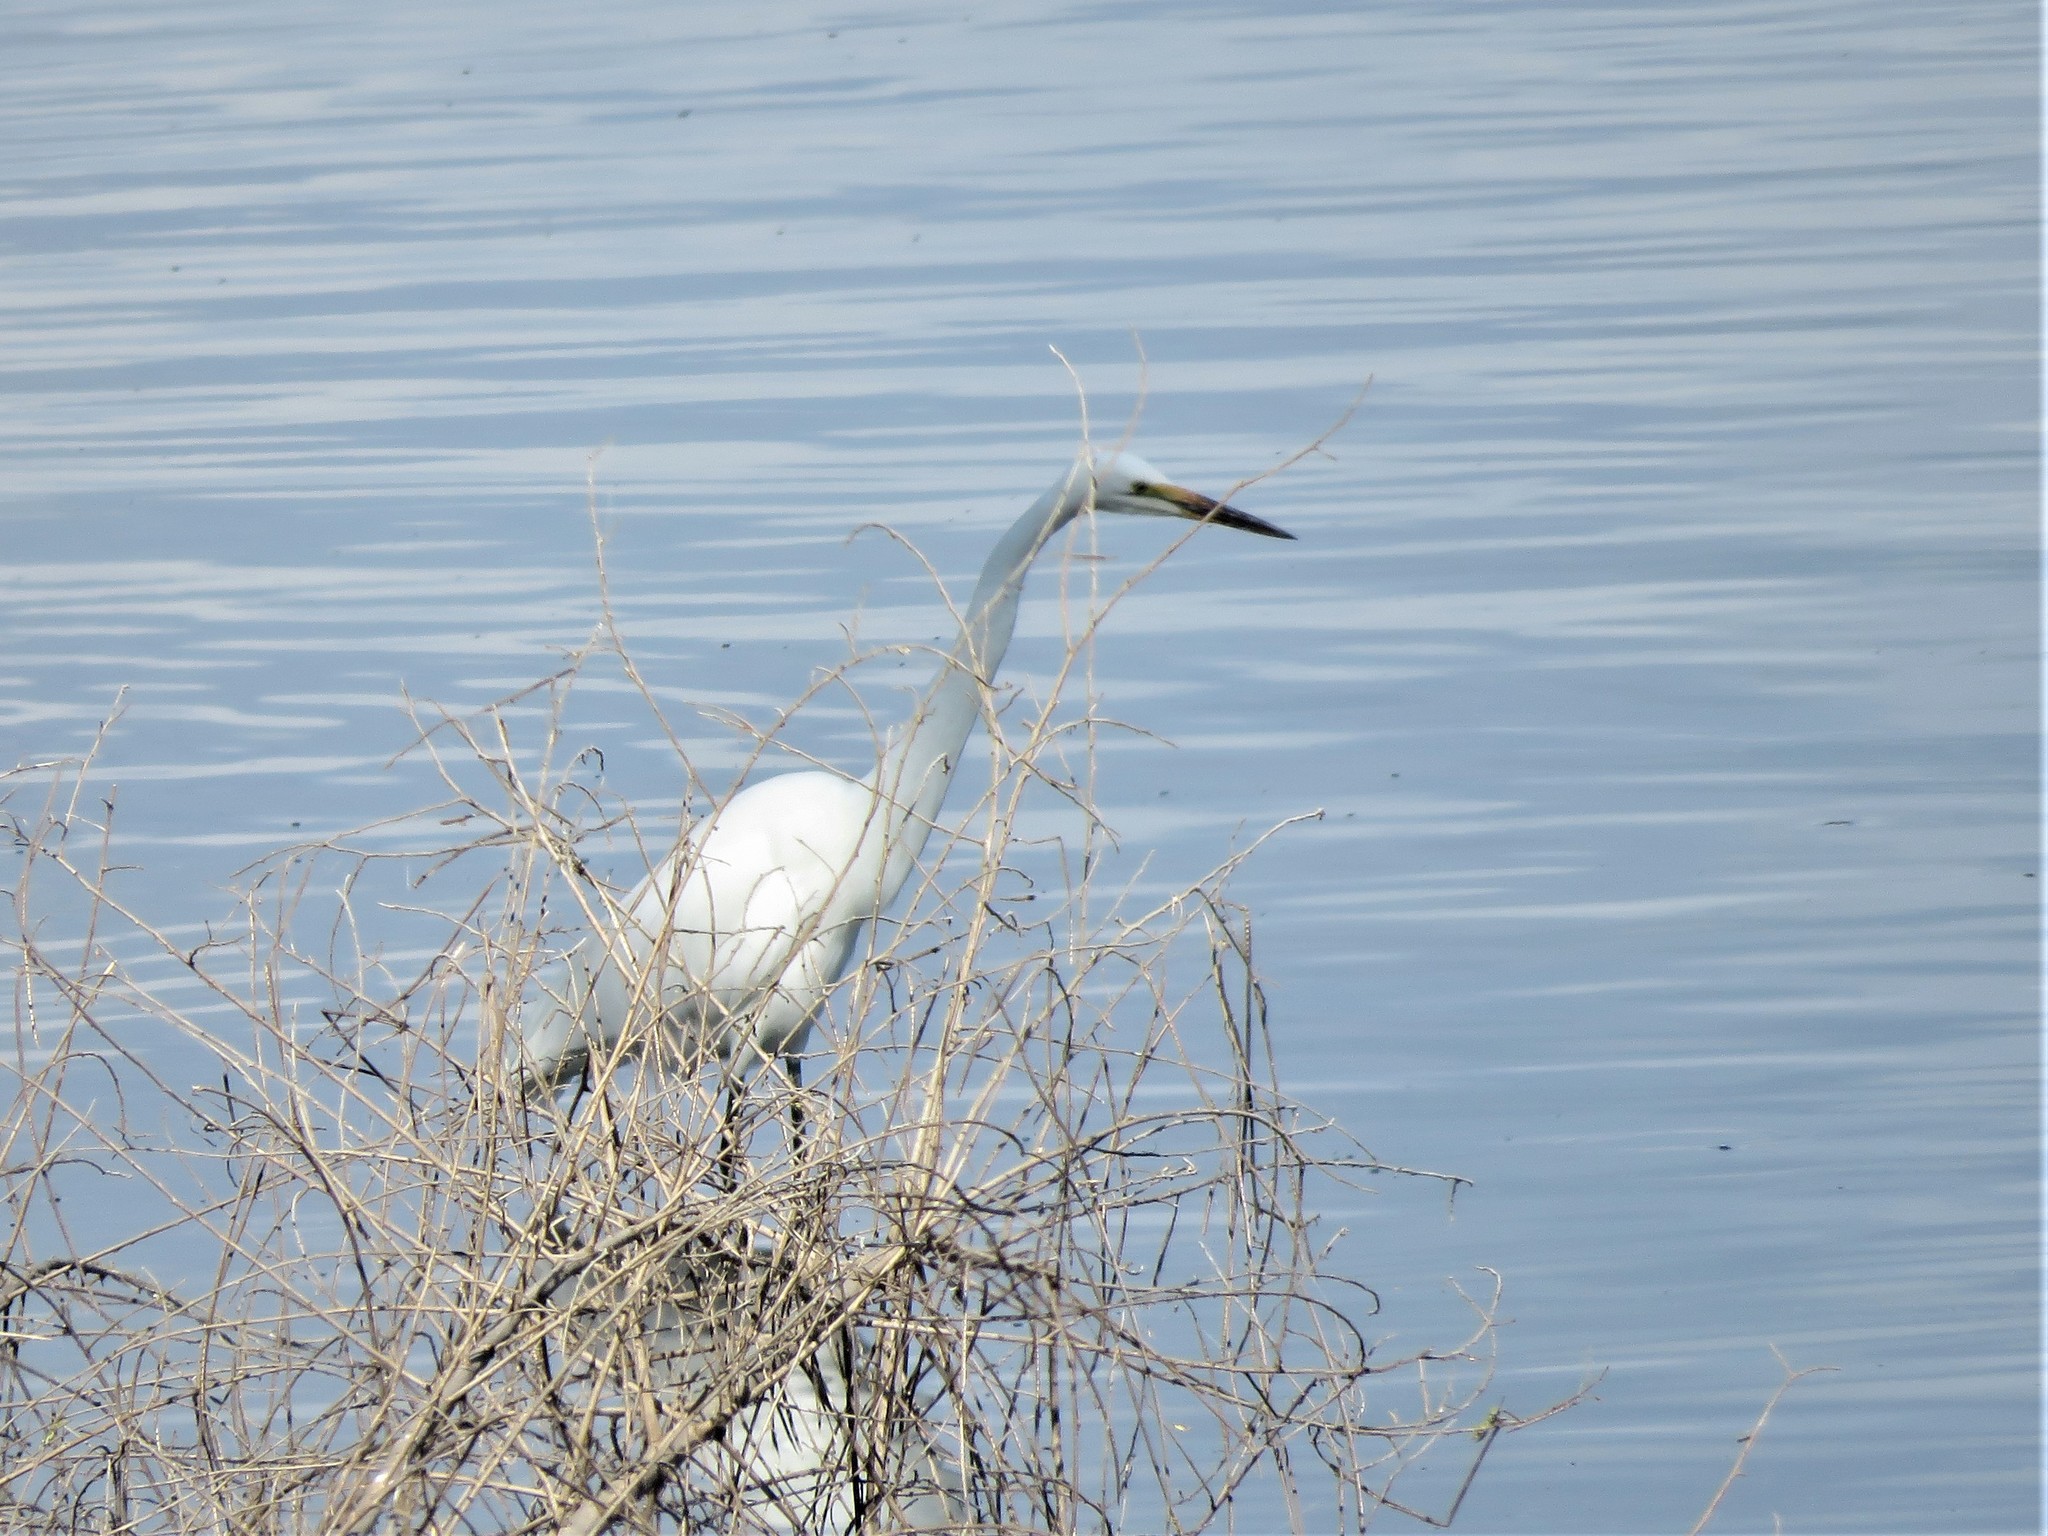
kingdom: Animalia
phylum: Chordata
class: Aves
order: Pelecaniformes
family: Ardeidae
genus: Ardea
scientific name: Ardea alba
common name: Great egret
